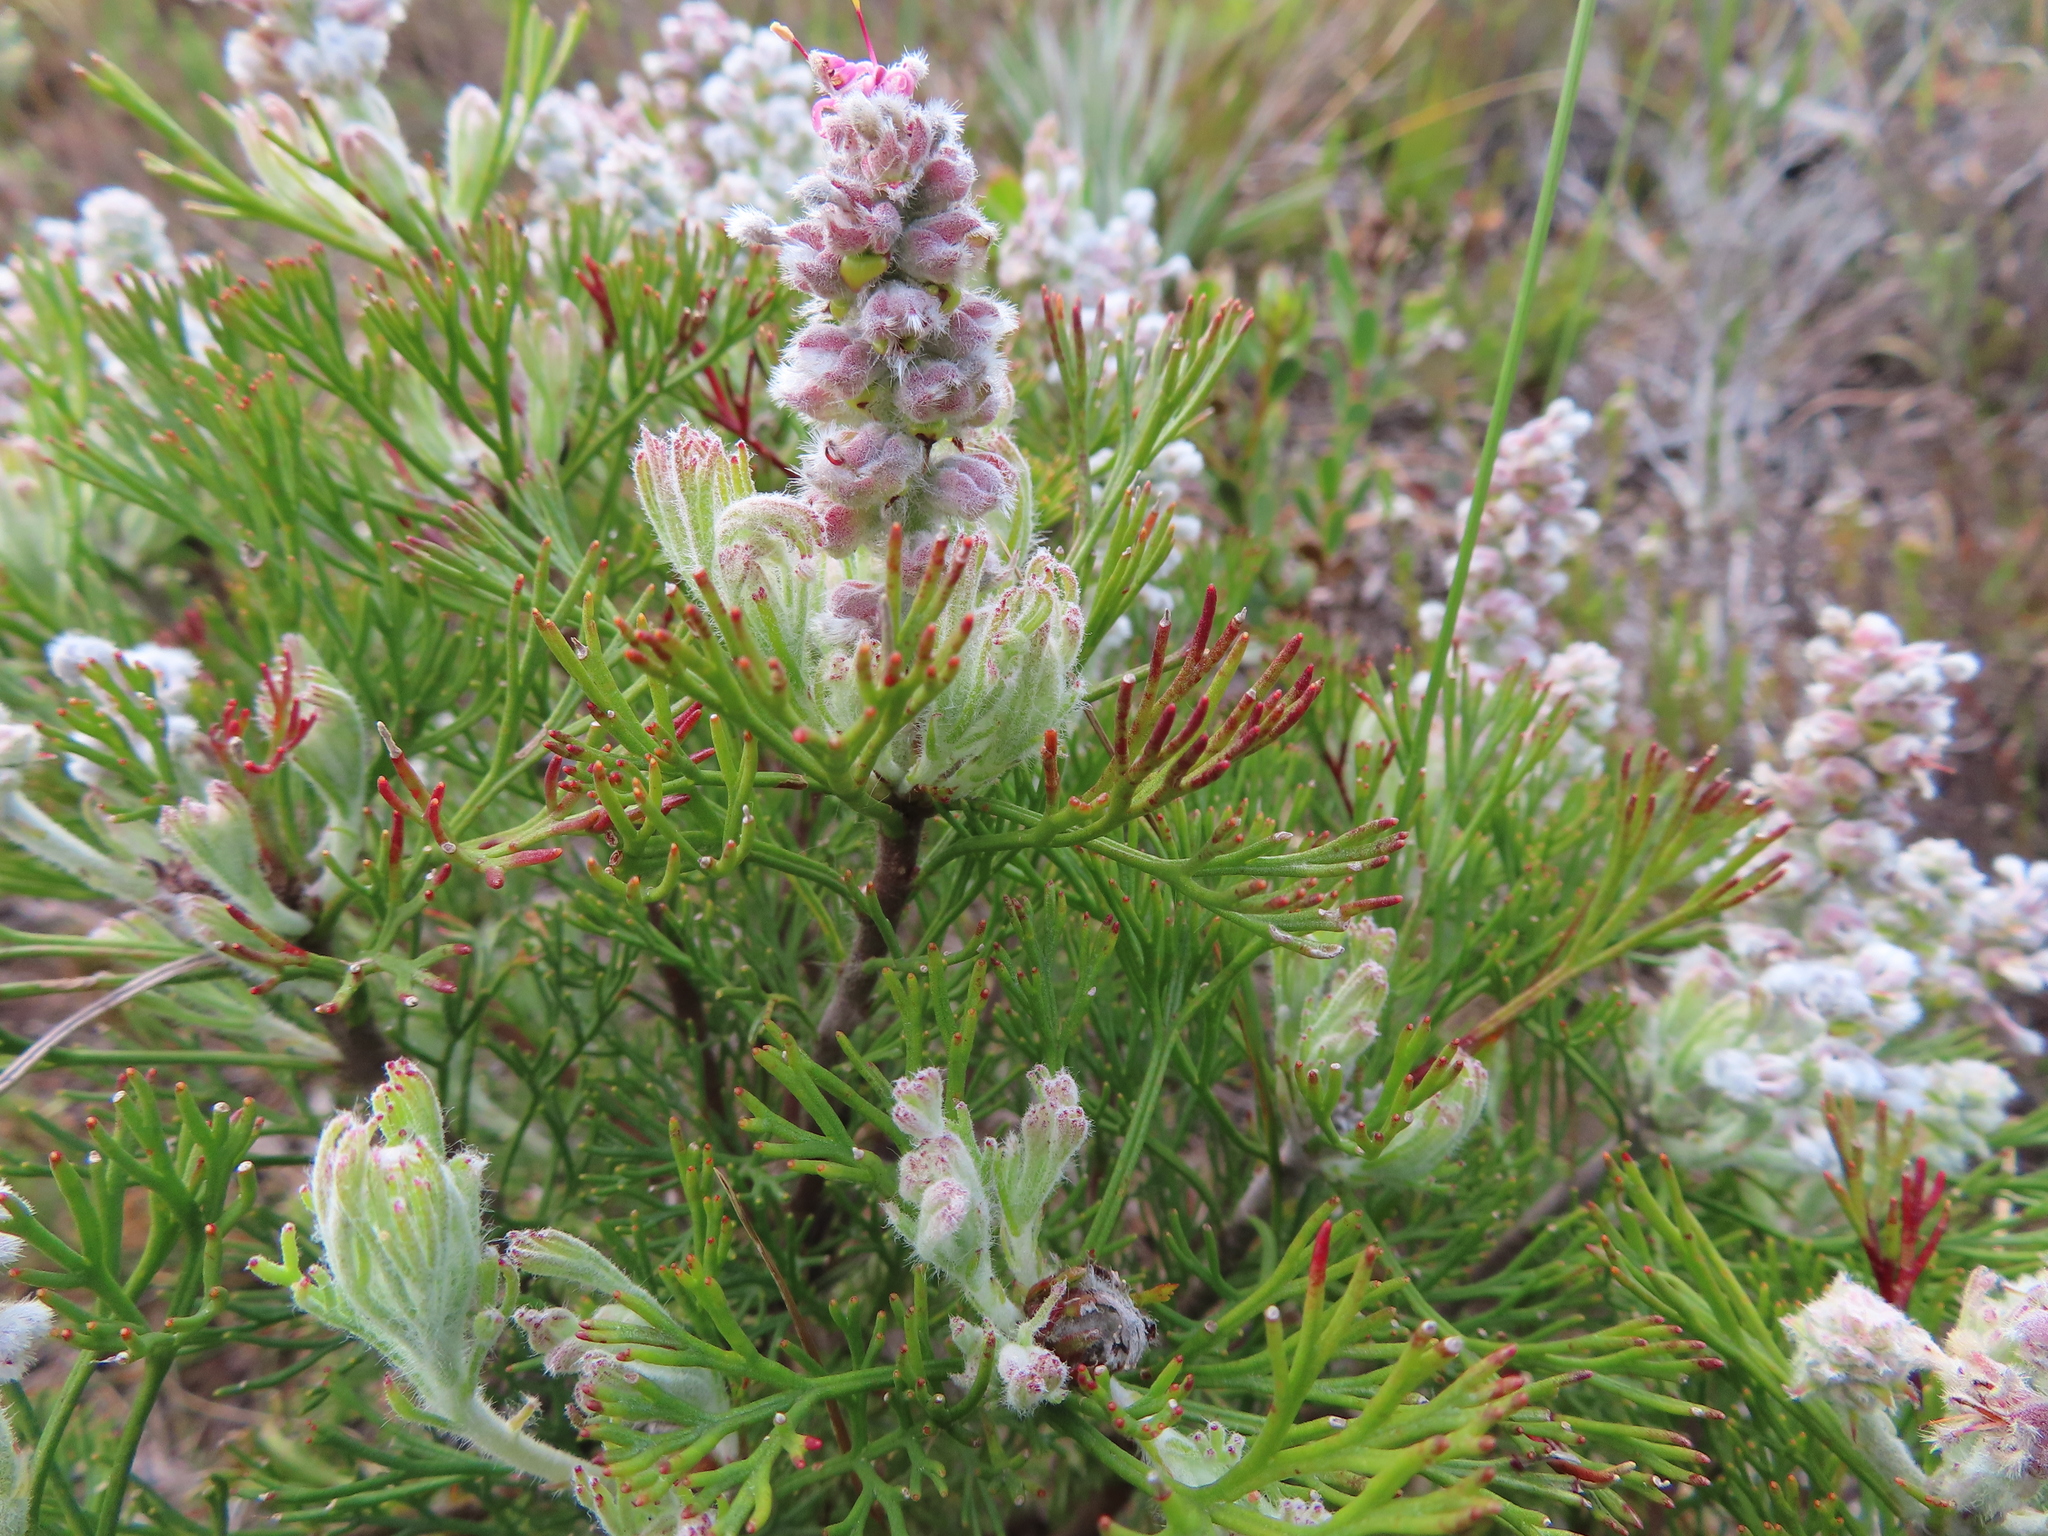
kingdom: Plantae
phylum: Tracheophyta
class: Magnoliopsida
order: Proteales
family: Proteaceae
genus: Paranomus
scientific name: Paranomus abrotanifolius
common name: Bredasdorp sceptre
